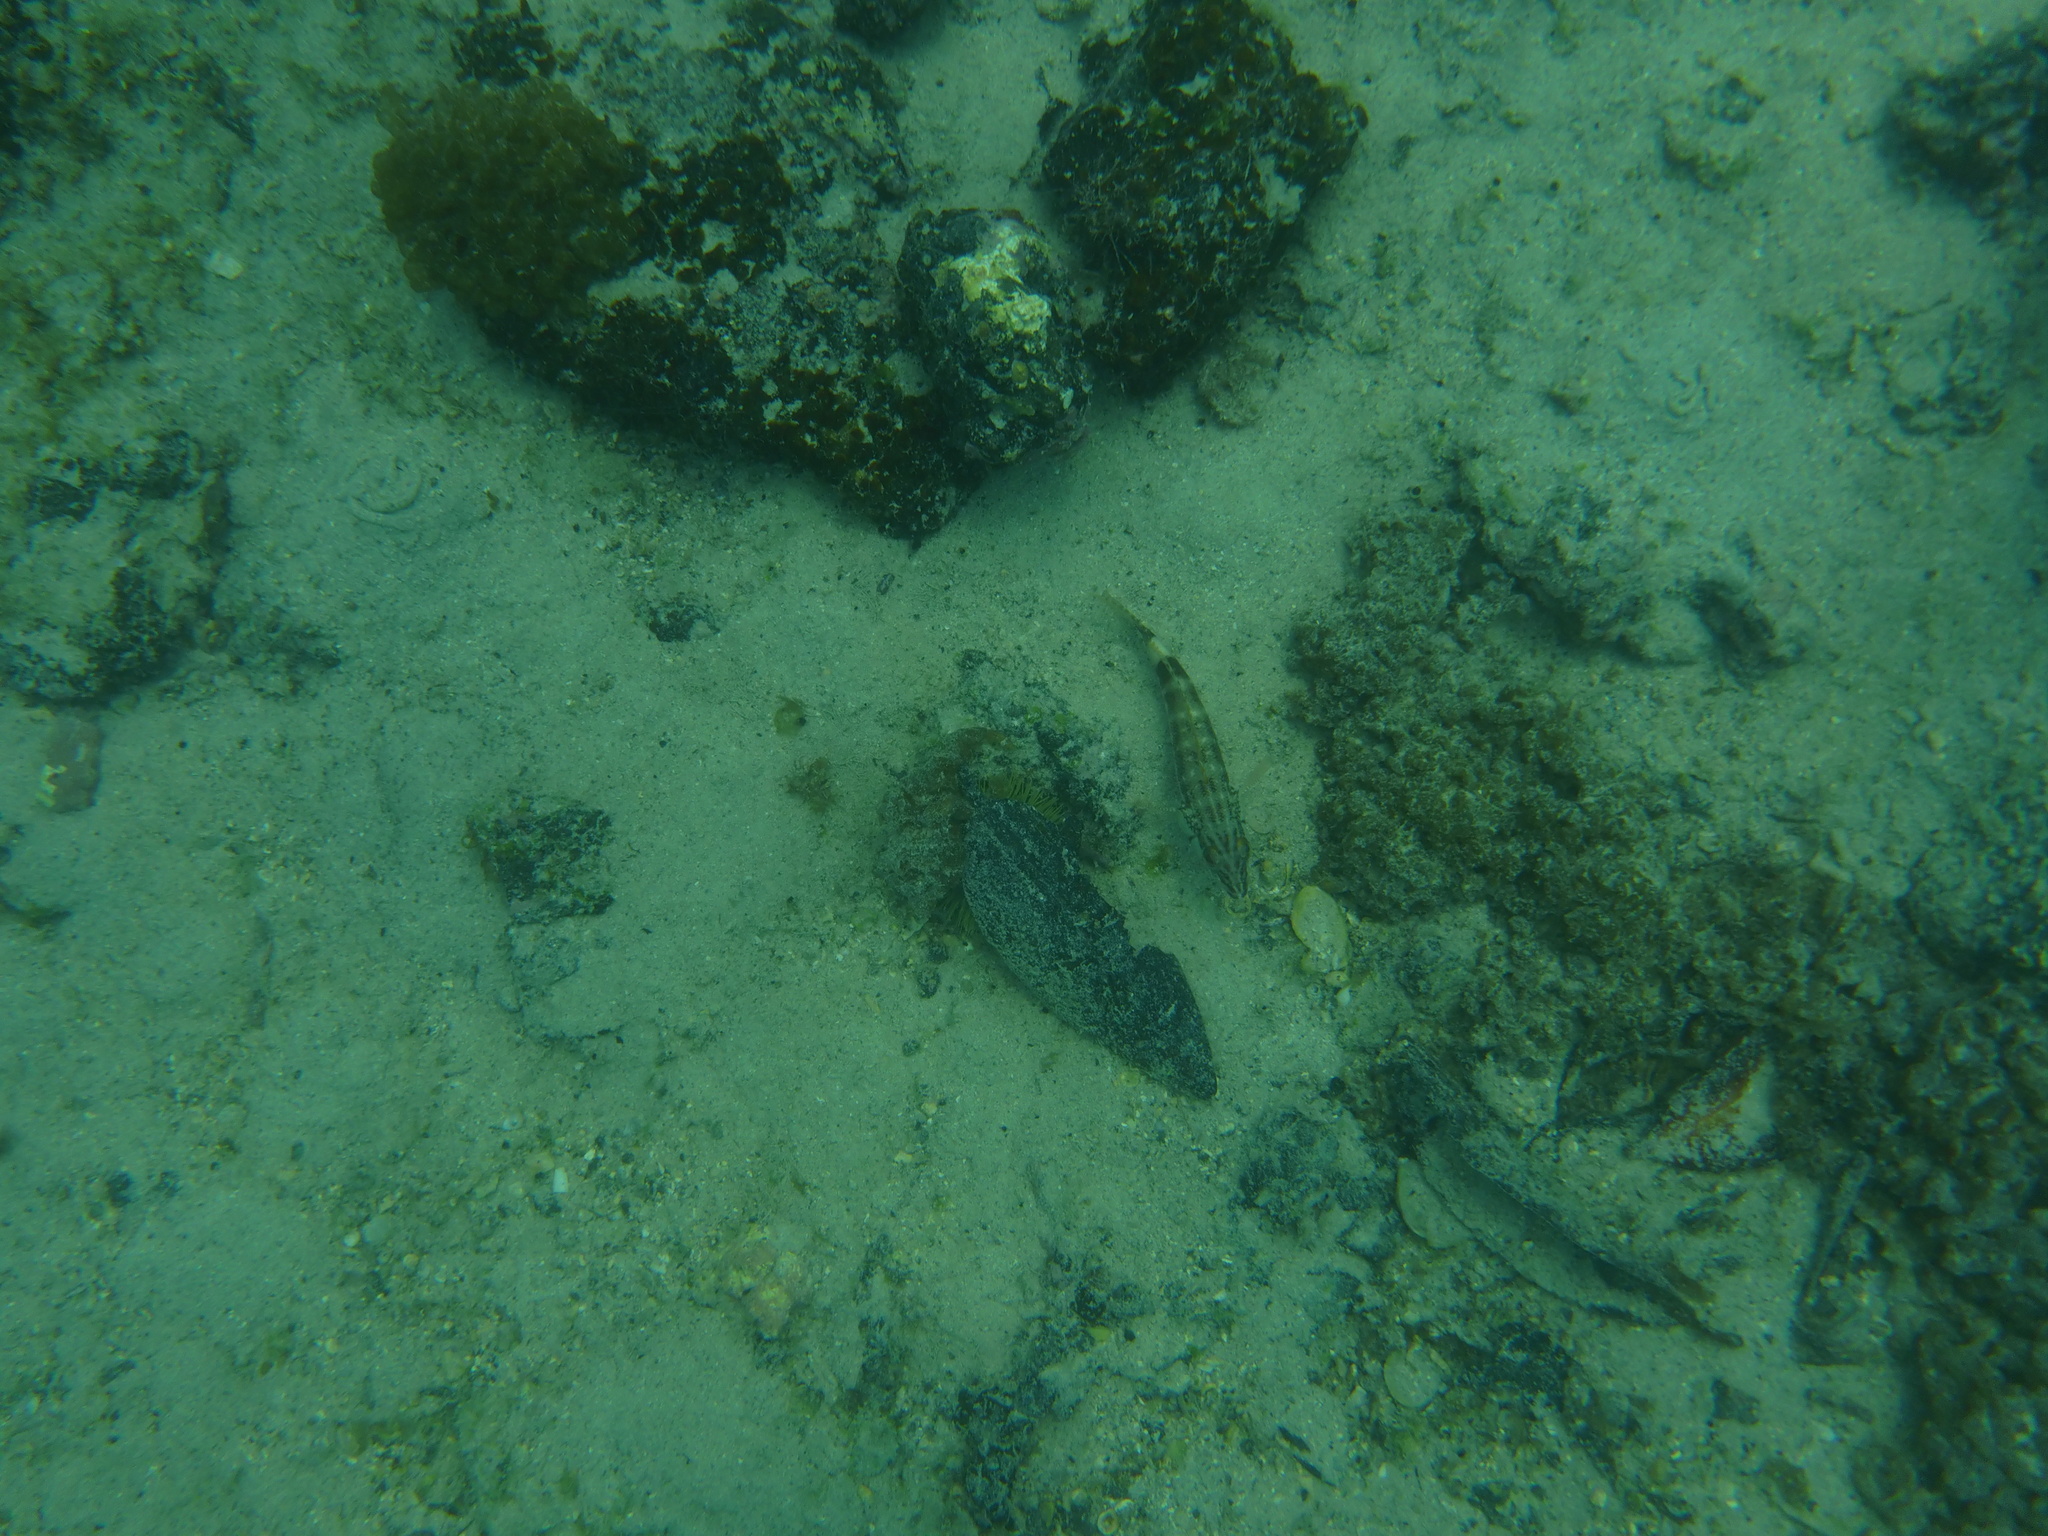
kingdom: Animalia
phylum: Chordata
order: Perciformes
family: Serranidae
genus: Serranus
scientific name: Serranus psittacinus
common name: Barred serrano
